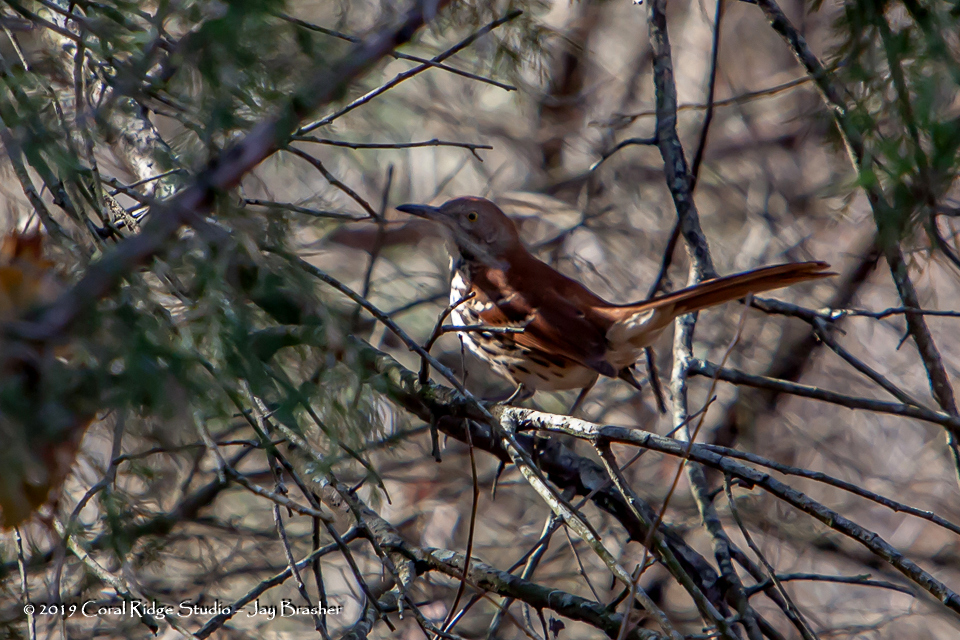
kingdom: Animalia
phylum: Chordata
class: Aves
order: Passeriformes
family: Mimidae
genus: Toxostoma
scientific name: Toxostoma rufum
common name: Brown thrasher
